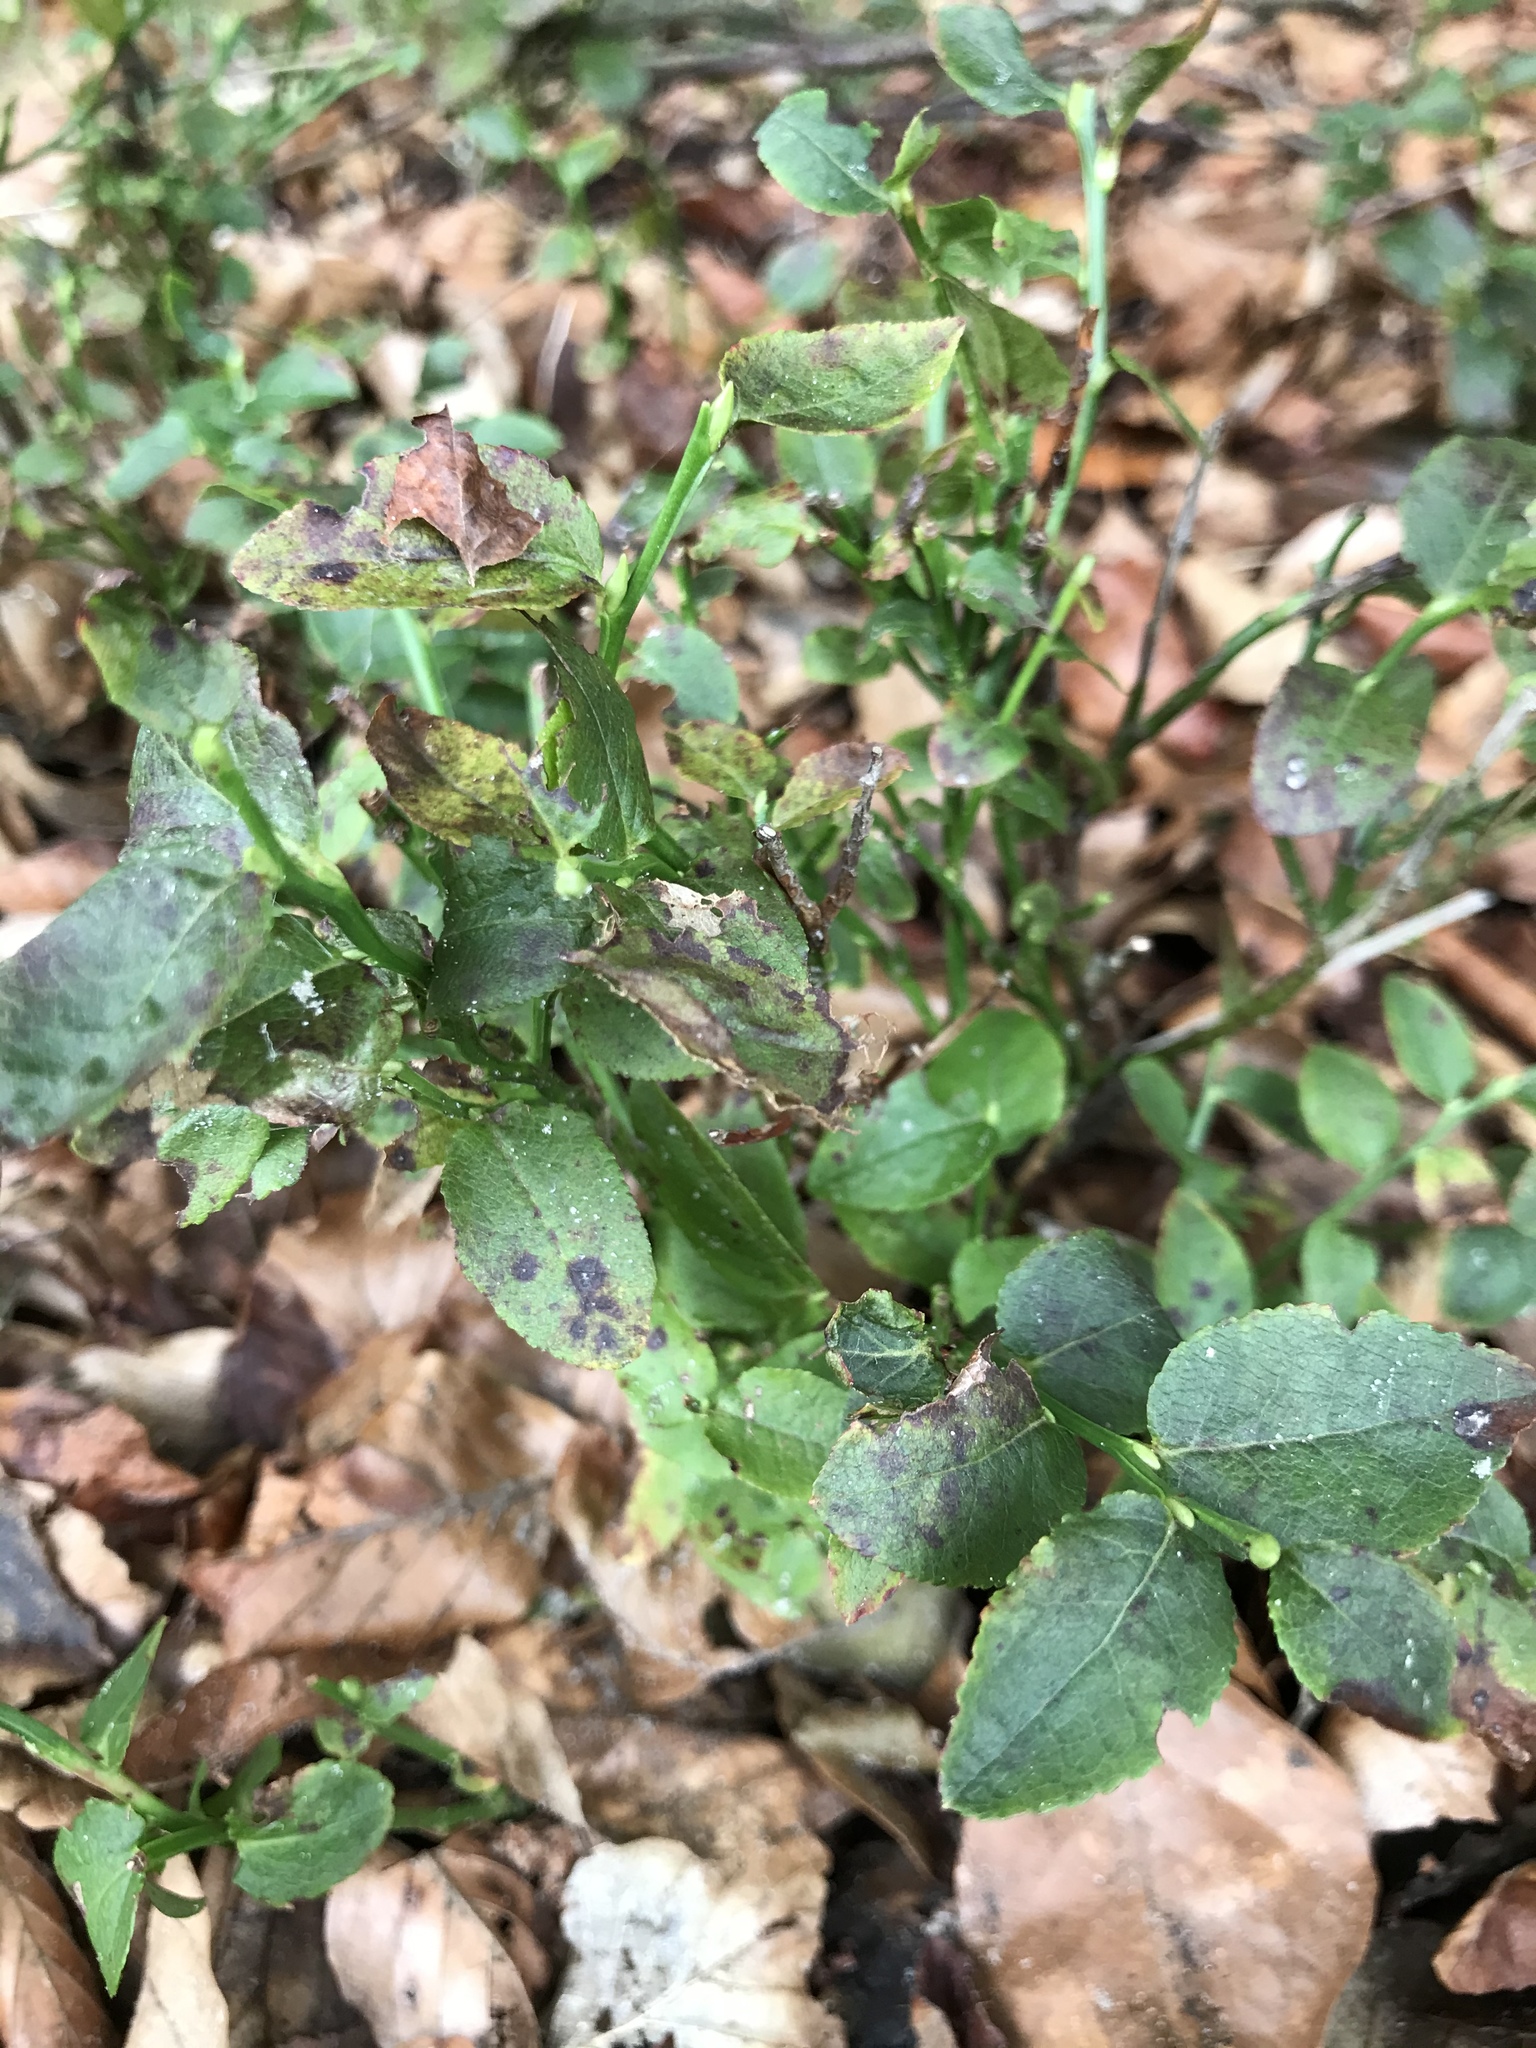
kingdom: Plantae
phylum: Tracheophyta
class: Magnoliopsida
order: Ericales
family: Ericaceae
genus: Vaccinium
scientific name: Vaccinium myrtillus
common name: Bilberry
